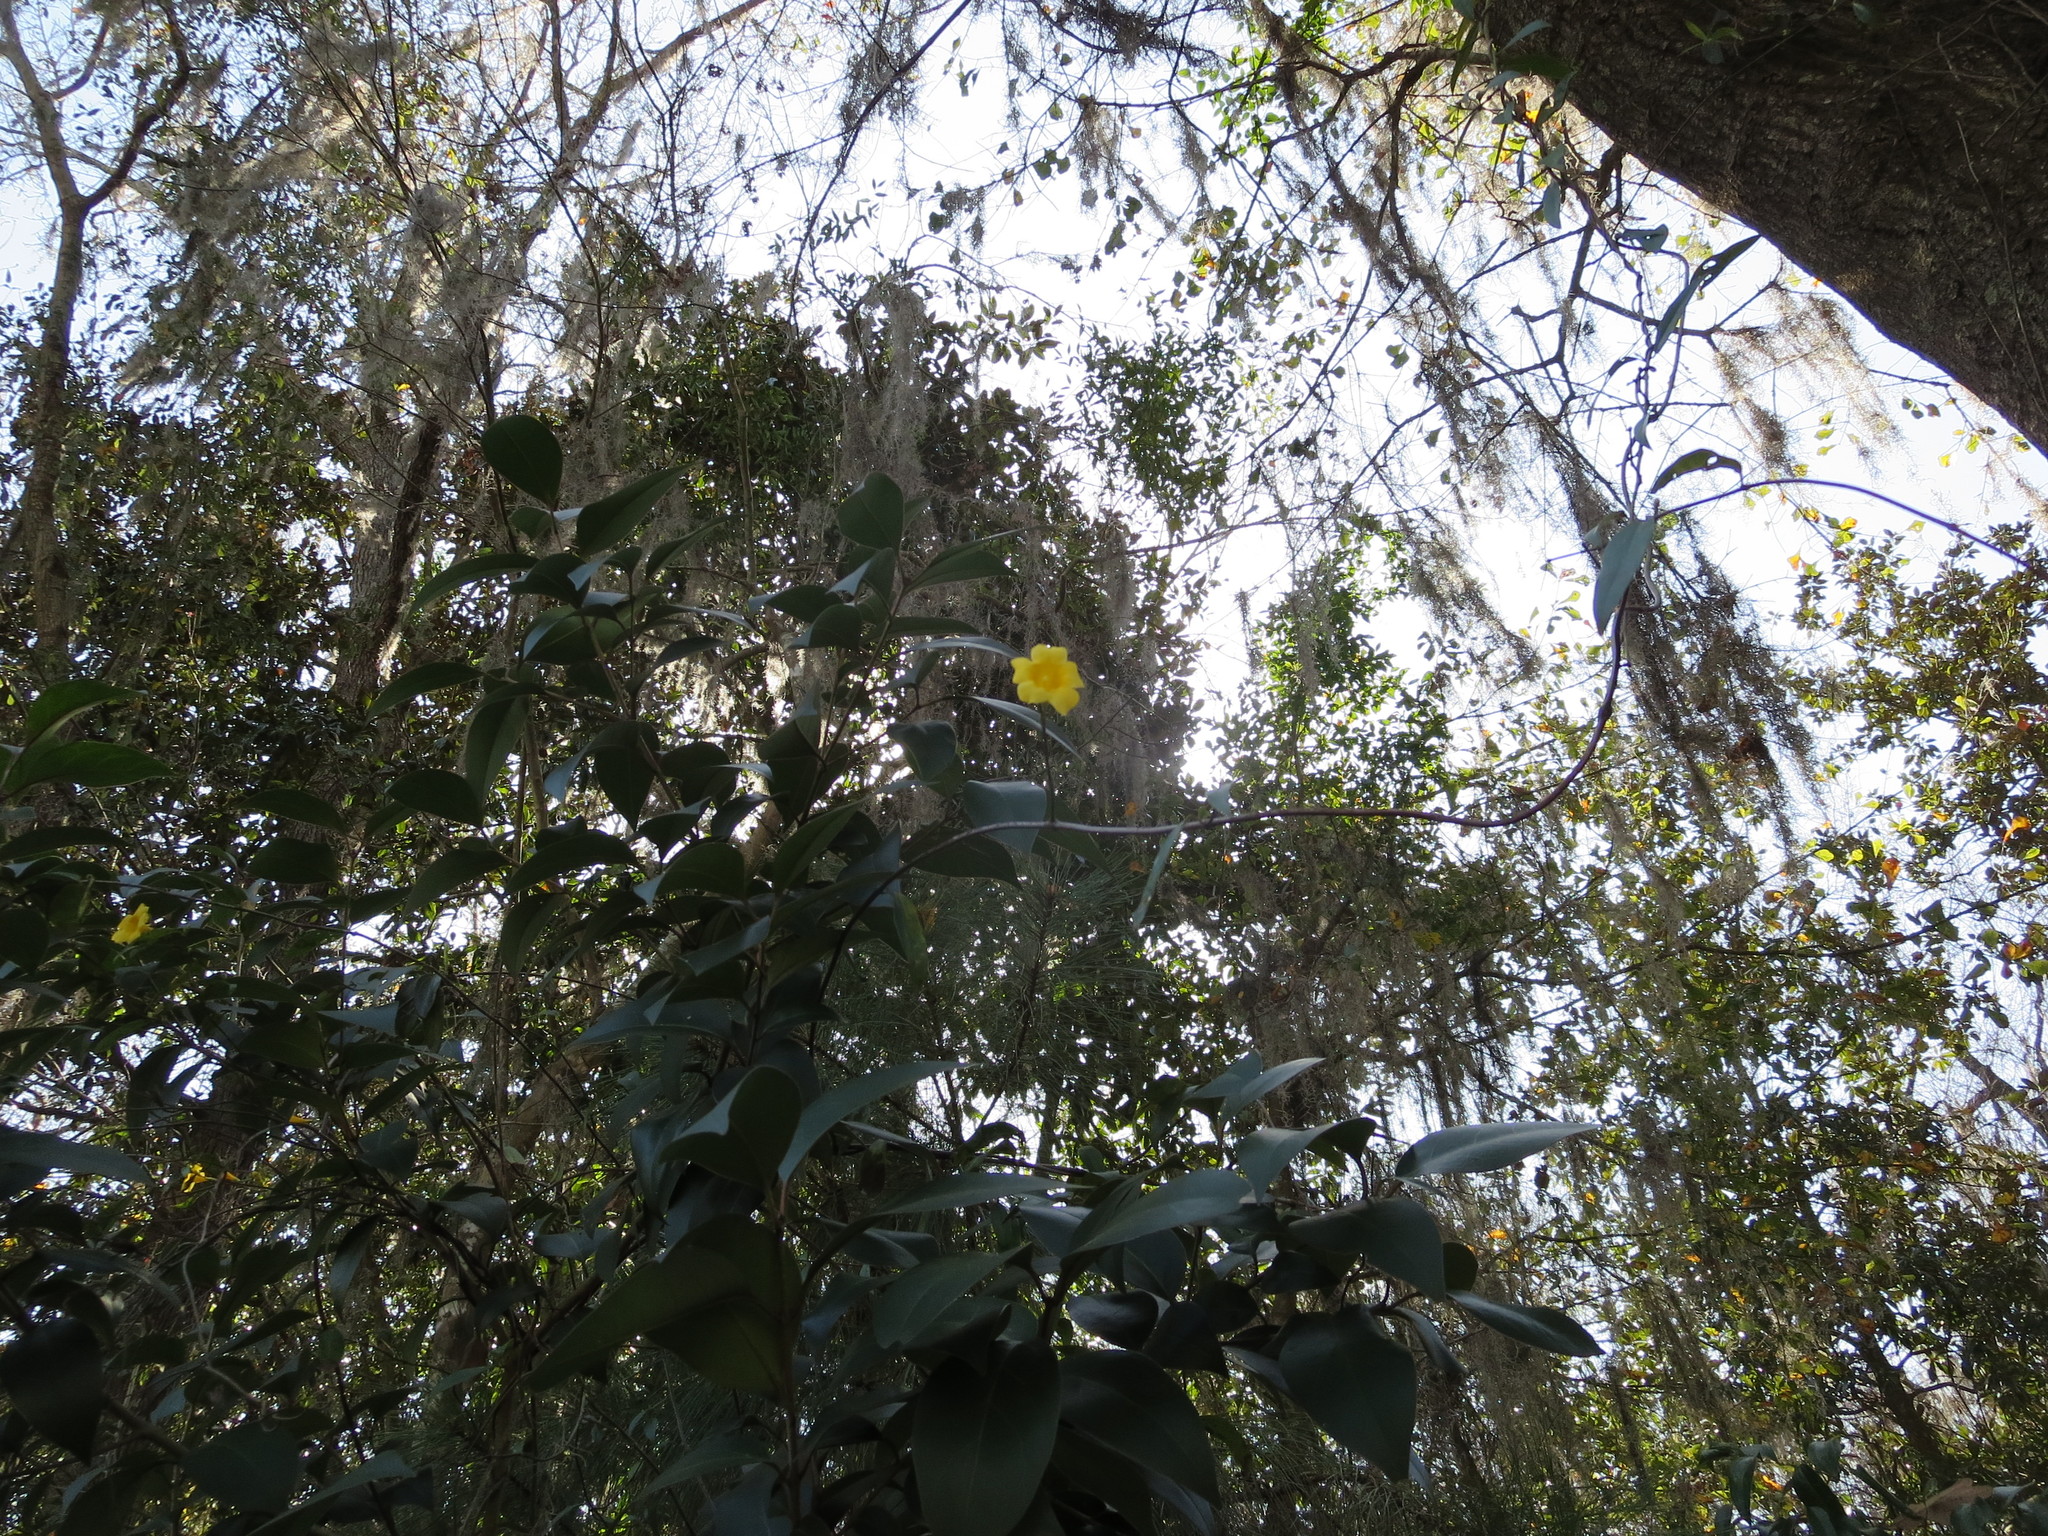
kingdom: Plantae
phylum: Tracheophyta
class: Magnoliopsida
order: Gentianales
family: Gelsemiaceae
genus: Gelsemium
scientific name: Gelsemium sempervirens
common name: Carolina-jasmine
